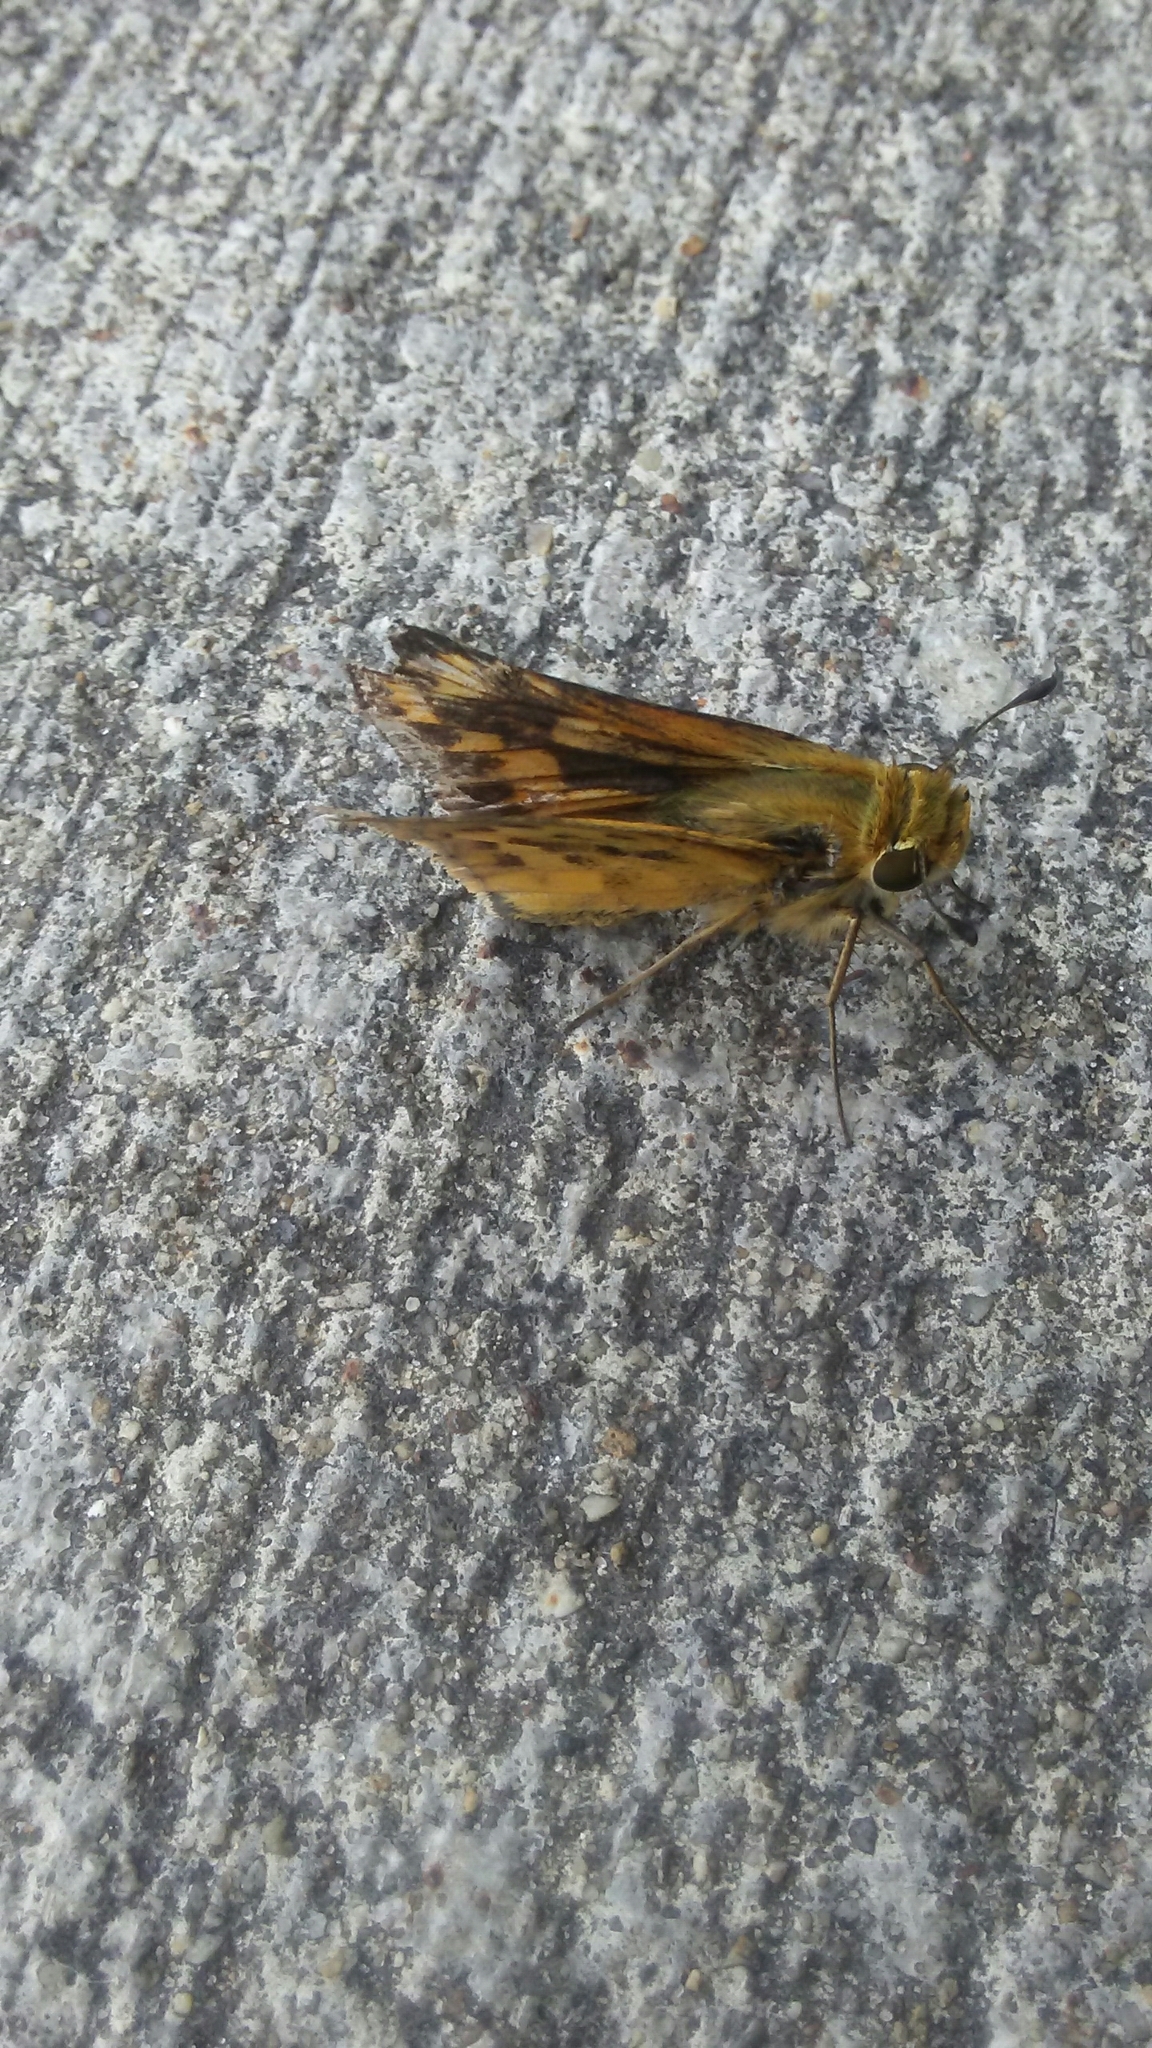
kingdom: Animalia
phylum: Arthropoda
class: Insecta
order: Lepidoptera
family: Hesperiidae
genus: Hylephila
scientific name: Hylephila phyleus
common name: Fiery skipper
